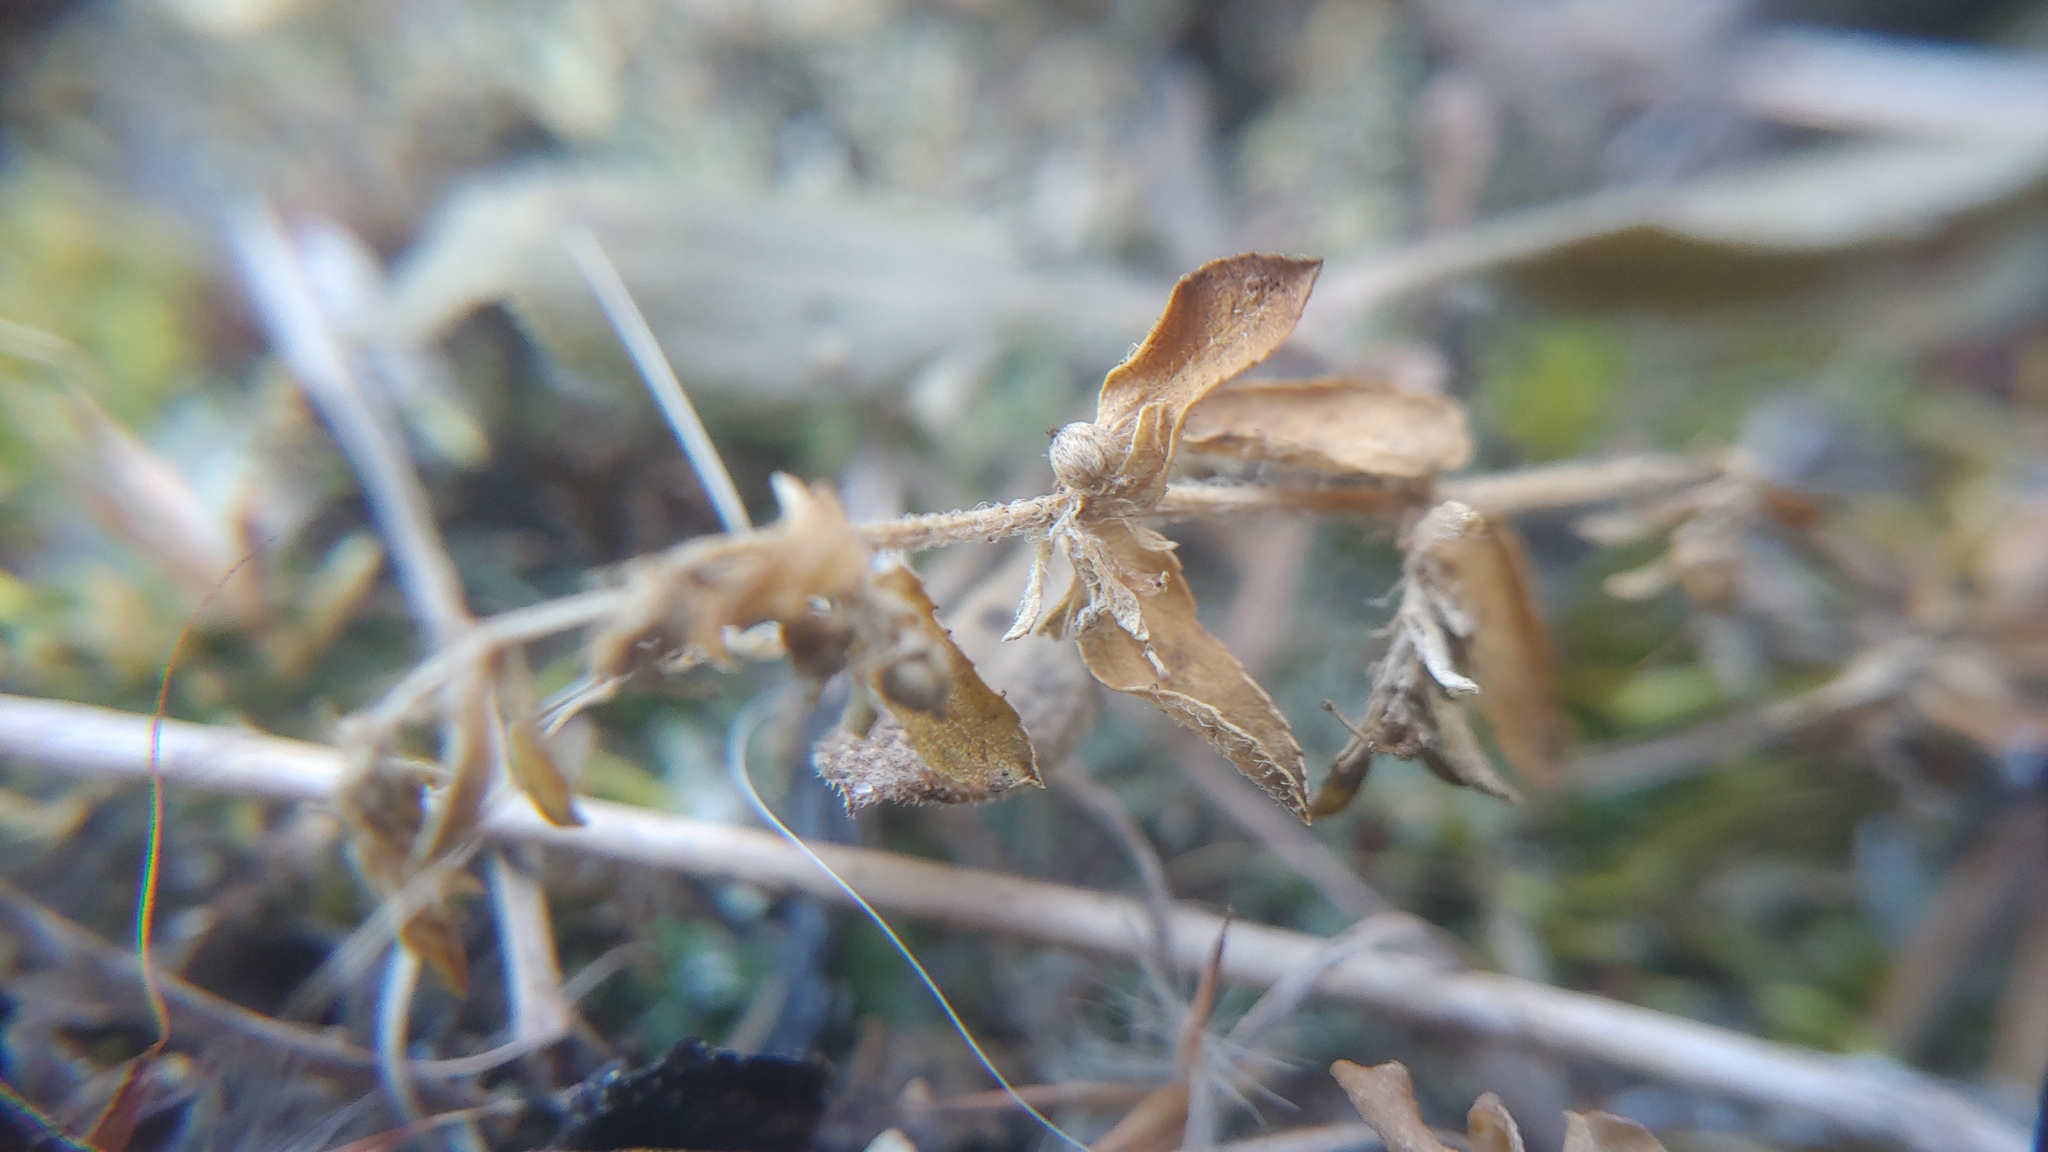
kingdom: Plantae
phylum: Tracheophyta
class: Magnoliopsida
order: Malpighiales
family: Euphorbiaceae
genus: Euphorbia
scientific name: Euphorbia maculata
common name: Spotted spurge
